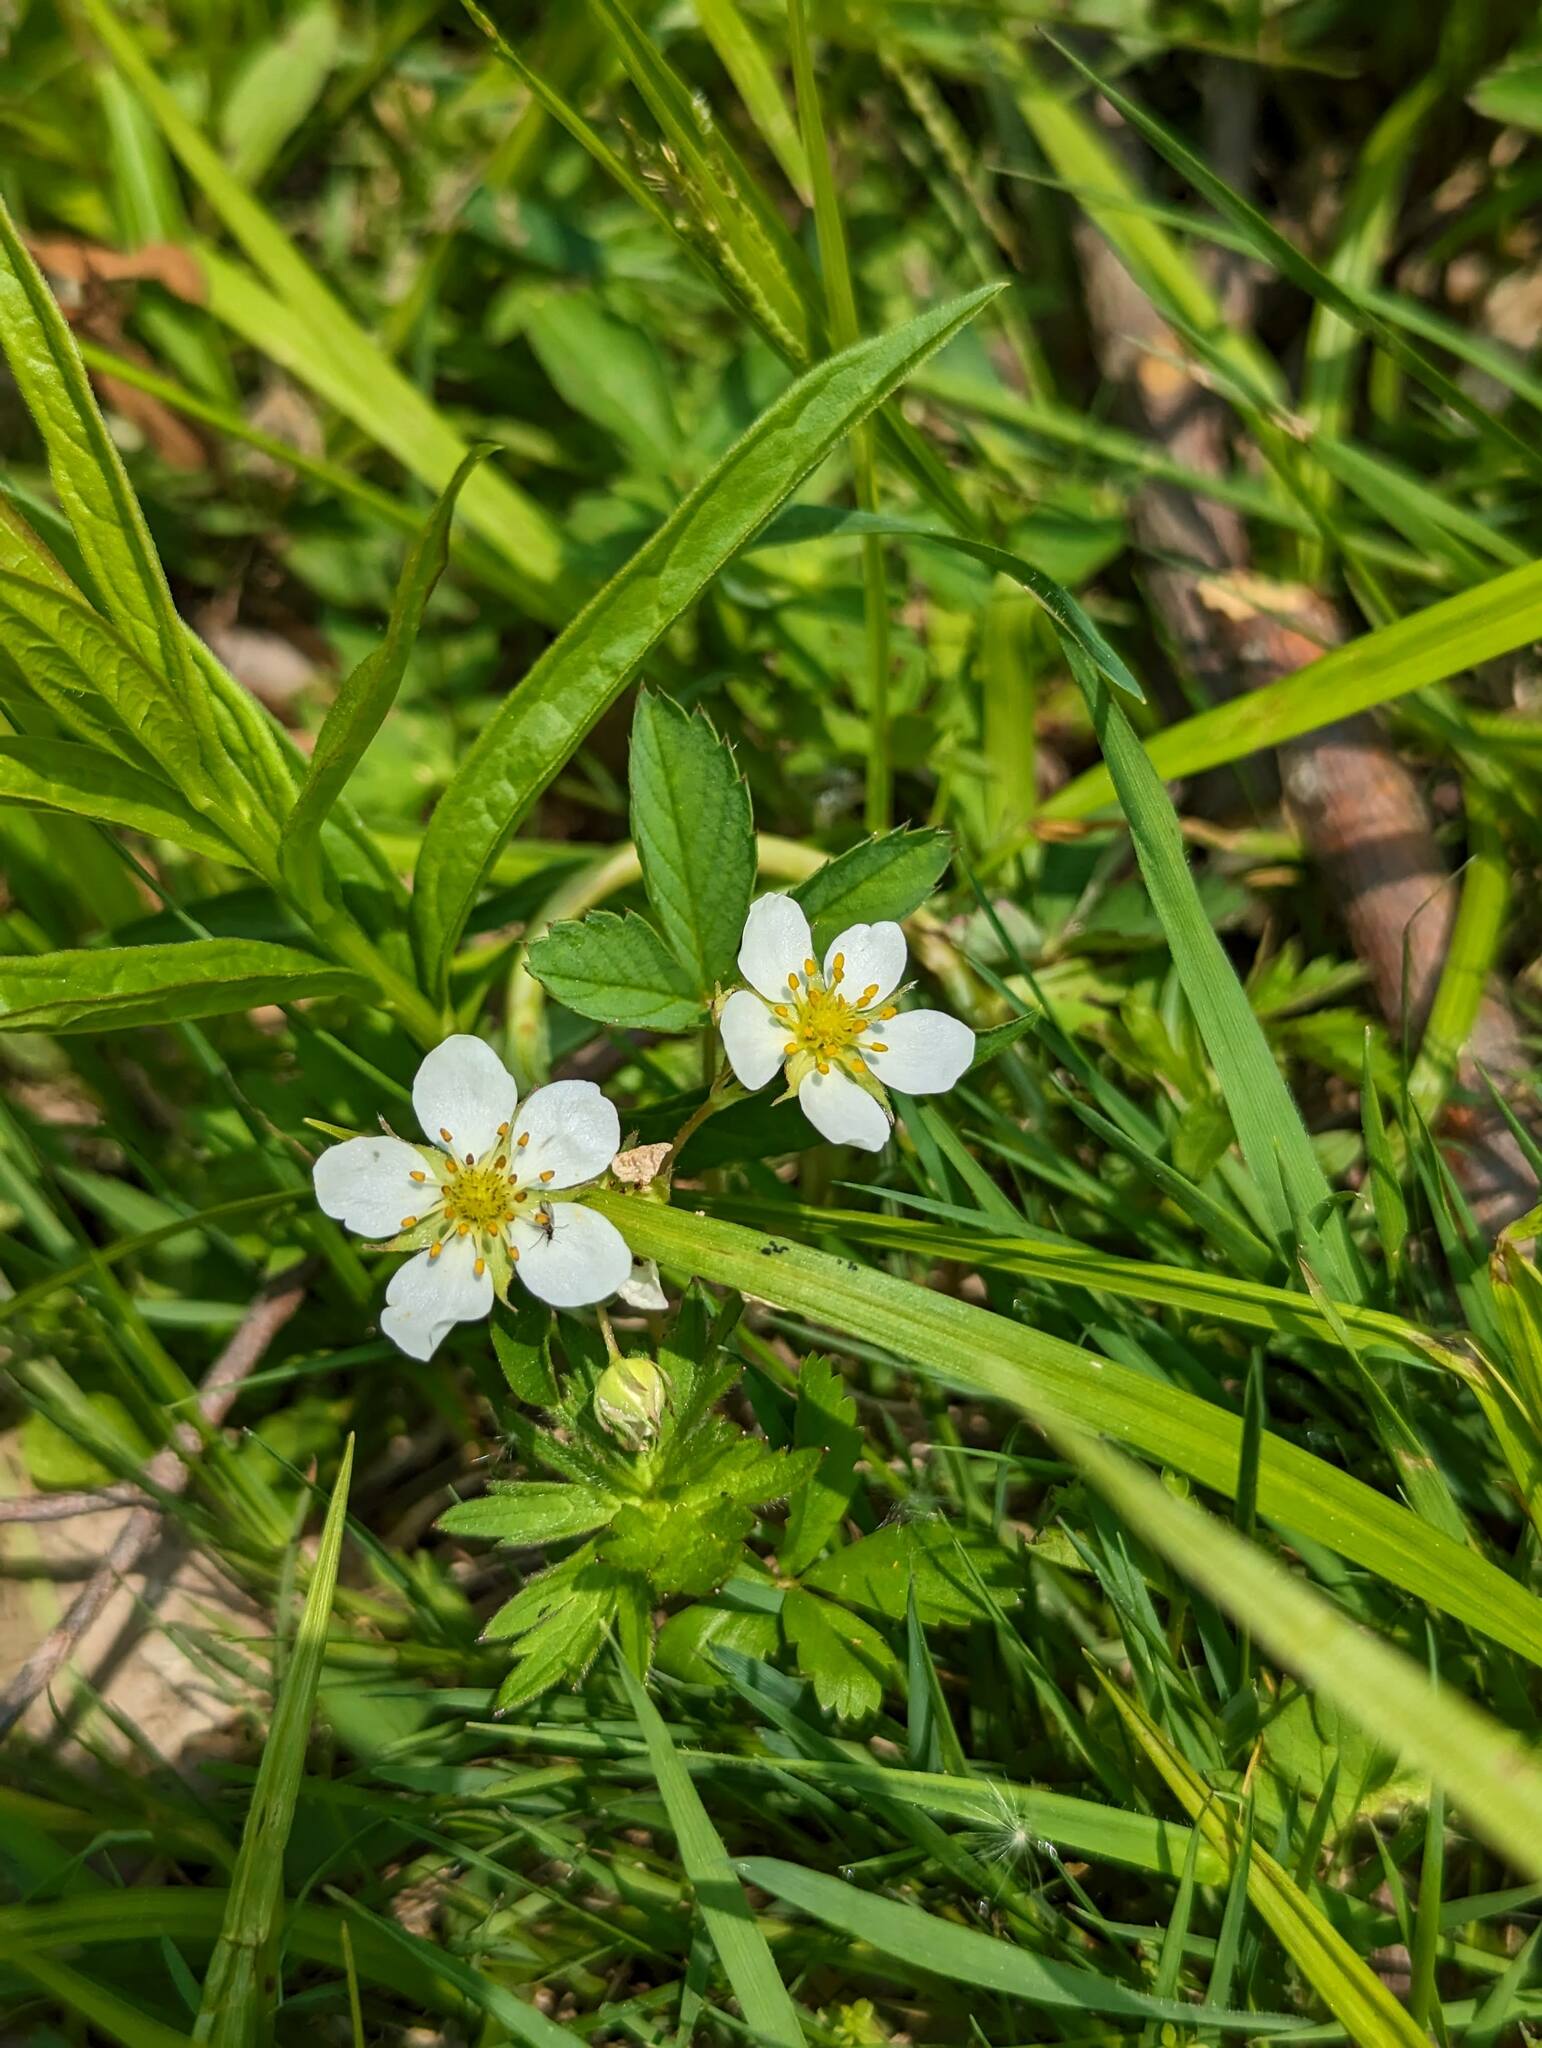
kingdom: Plantae
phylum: Tracheophyta
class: Magnoliopsida
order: Rosales
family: Rosaceae
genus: Fragaria
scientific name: Fragaria virginiana
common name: Thickleaved wild strawberry
